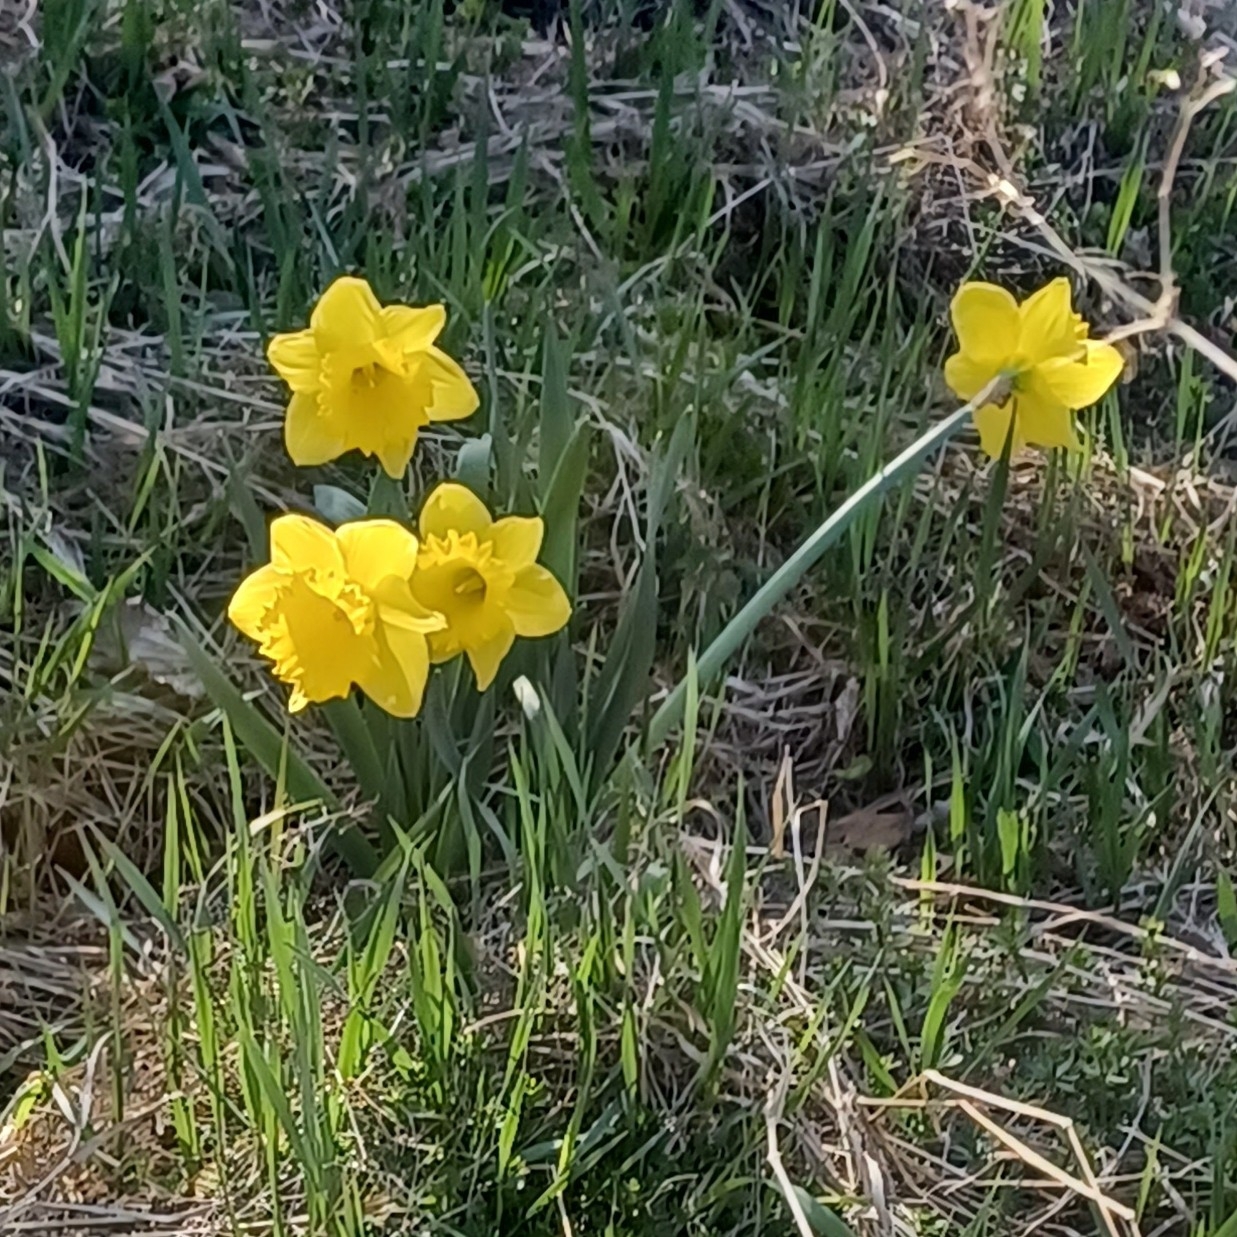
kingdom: Plantae
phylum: Tracheophyta
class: Liliopsida
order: Asparagales
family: Amaryllidaceae
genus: Narcissus
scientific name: Narcissus pseudonarcissus
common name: Daffodil
